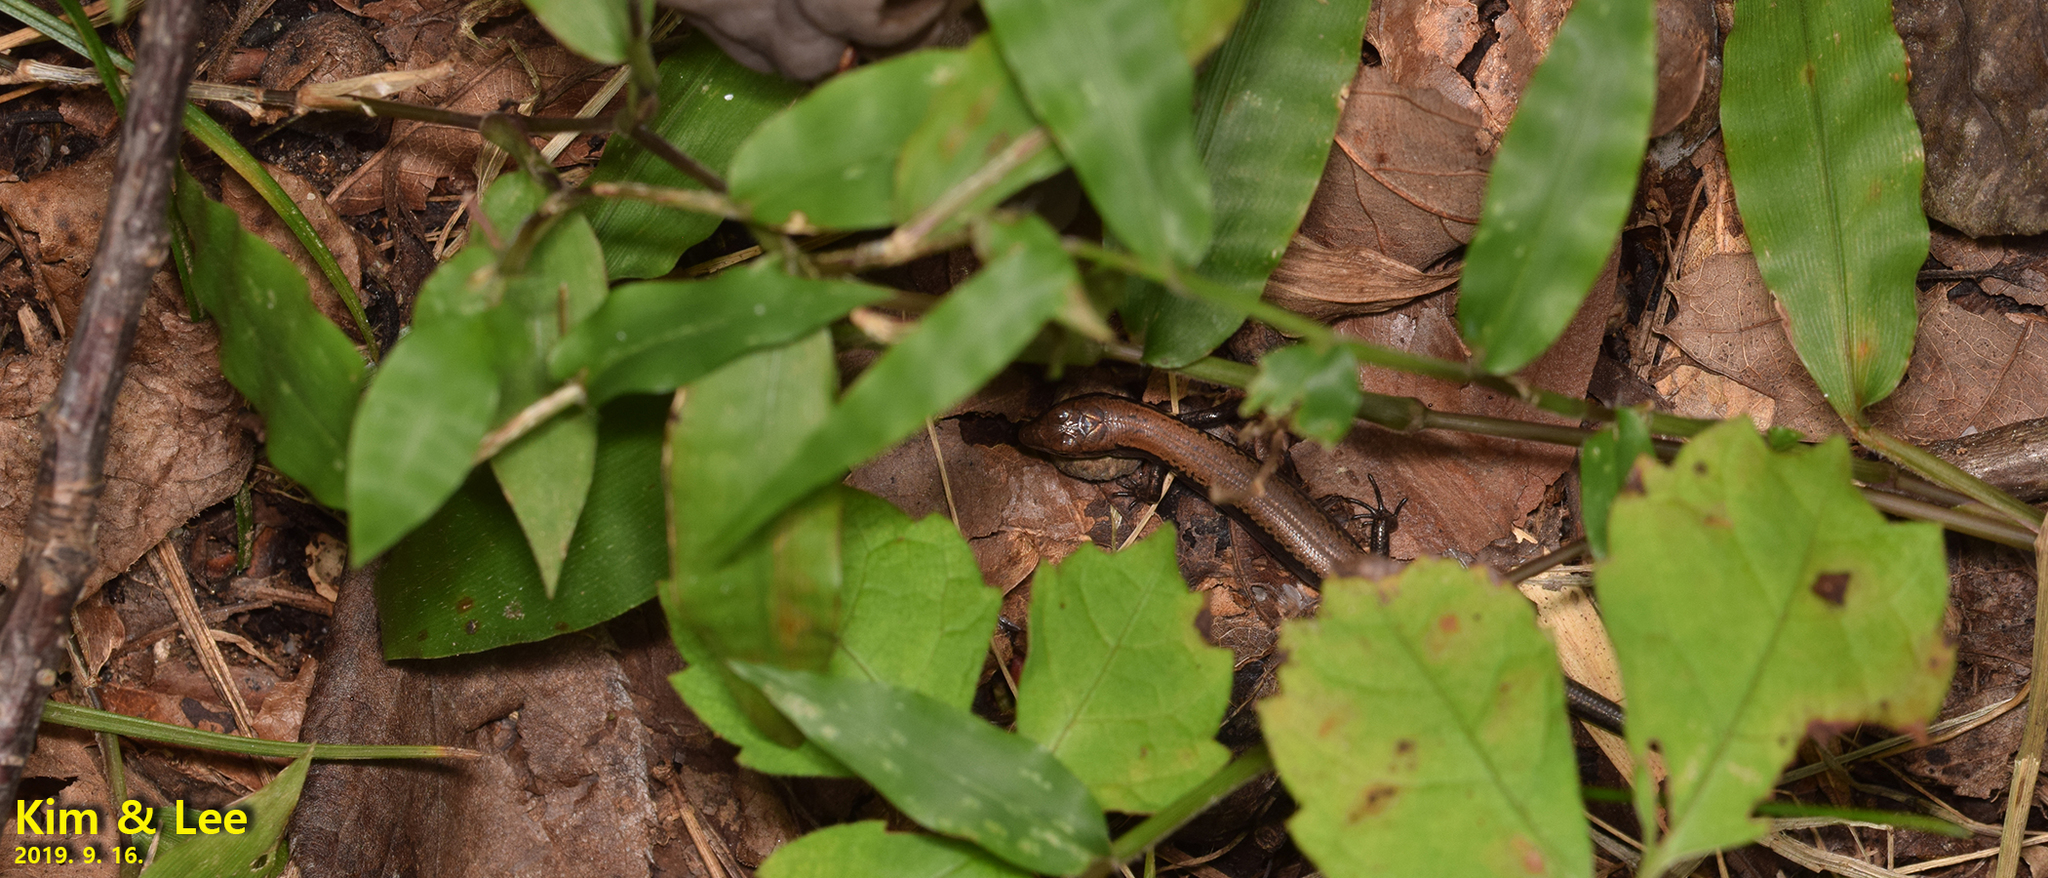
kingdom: Animalia
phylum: Chordata
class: Squamata
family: Scincidae
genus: Scincella
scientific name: Scincella vandenburghi
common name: Tsushima smooth skink
